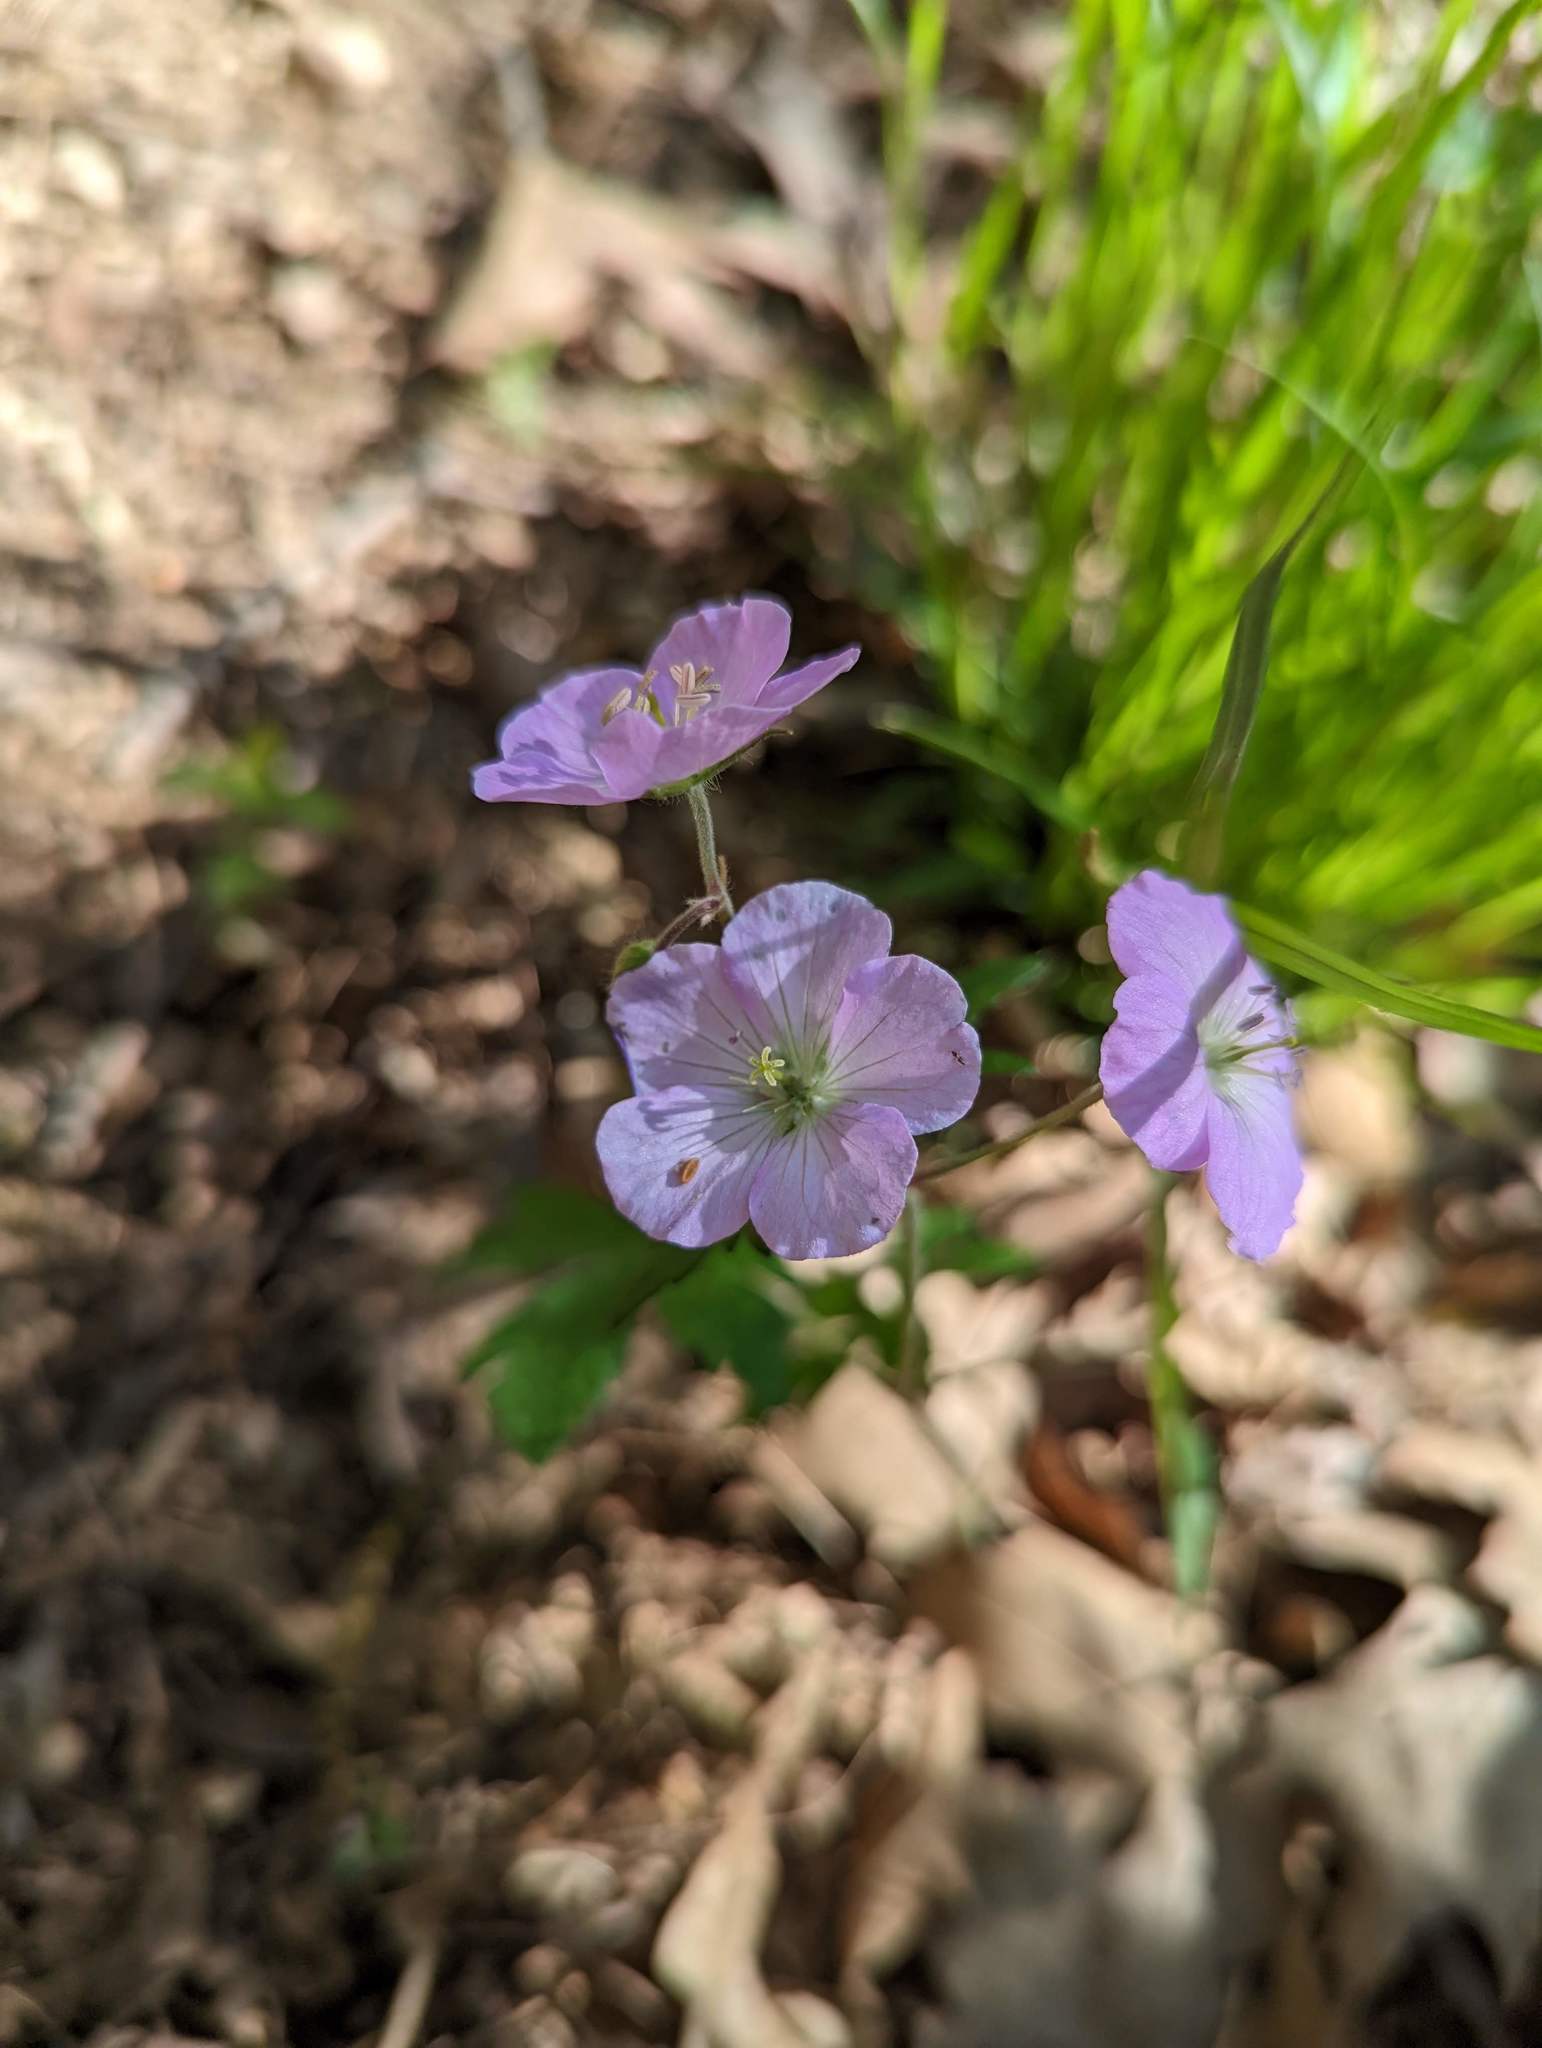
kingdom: Plantae
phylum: Tracheophyta
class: Magnoliopsida
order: Geraniales
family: Geraniaceae
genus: Geranium
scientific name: Geranium maculatum
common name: Spotted geranium
